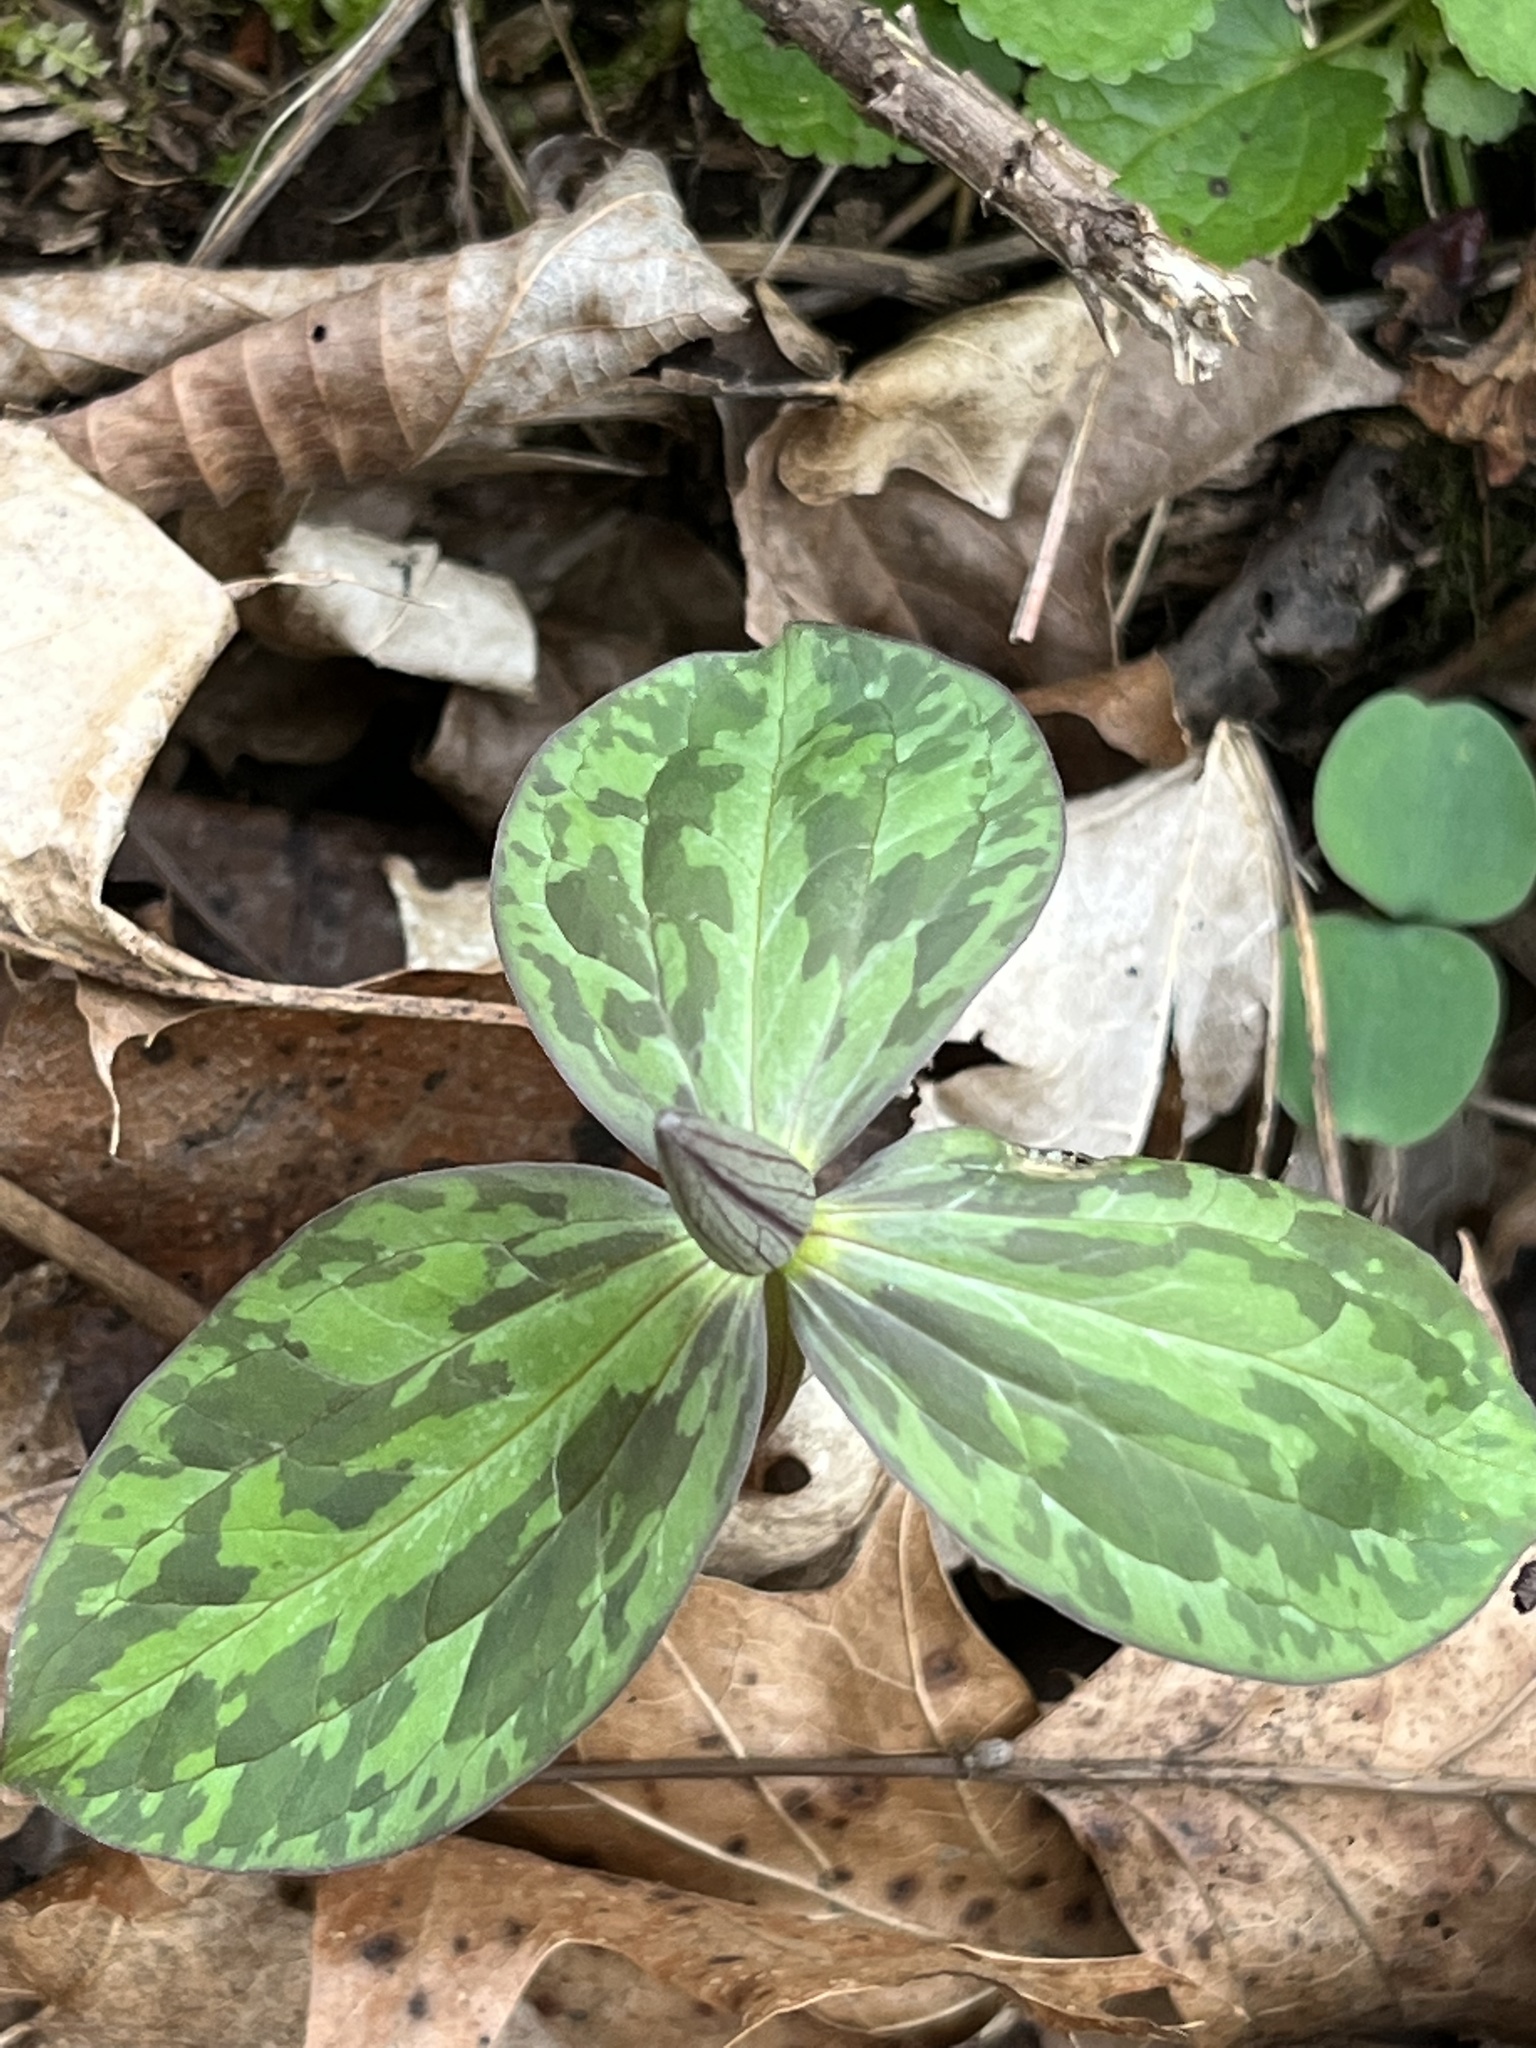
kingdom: Plantae
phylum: Tracheophyta
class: Liliopsida
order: Liliales
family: Melanthiaceae
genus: Trillium
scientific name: Trillium sessile
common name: Sessile trillium
